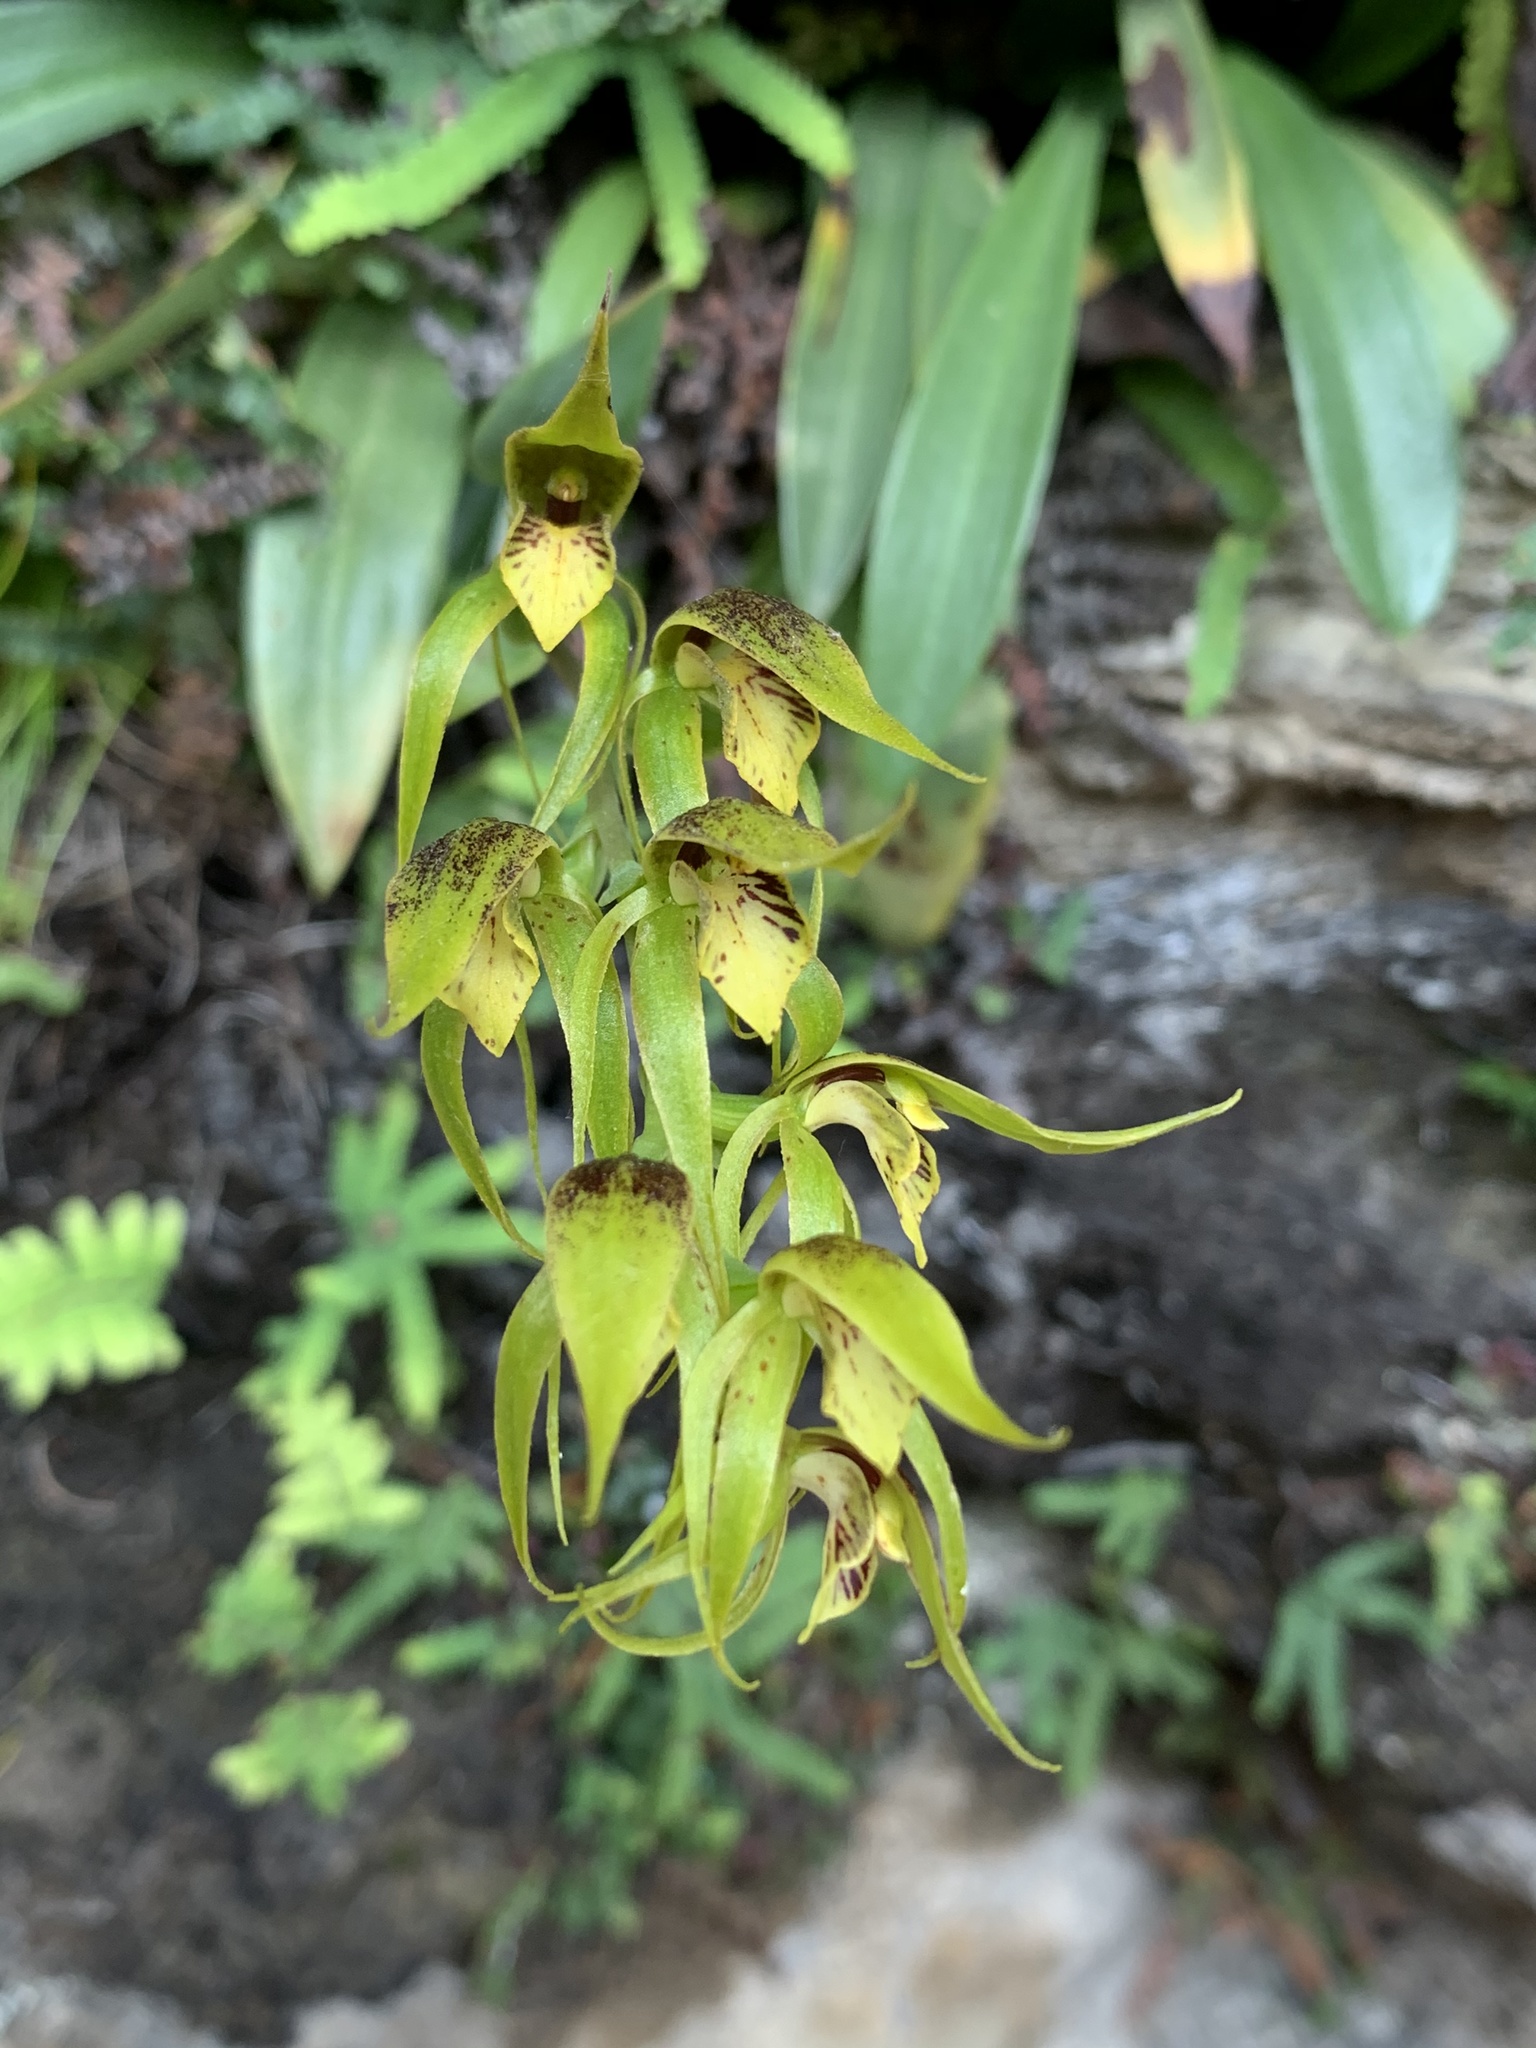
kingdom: Plantae
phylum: Tracheophyta
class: Liliopsida
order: Asparagales
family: Orchidaceae
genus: Rimacola
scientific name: Rimacola elliptica
